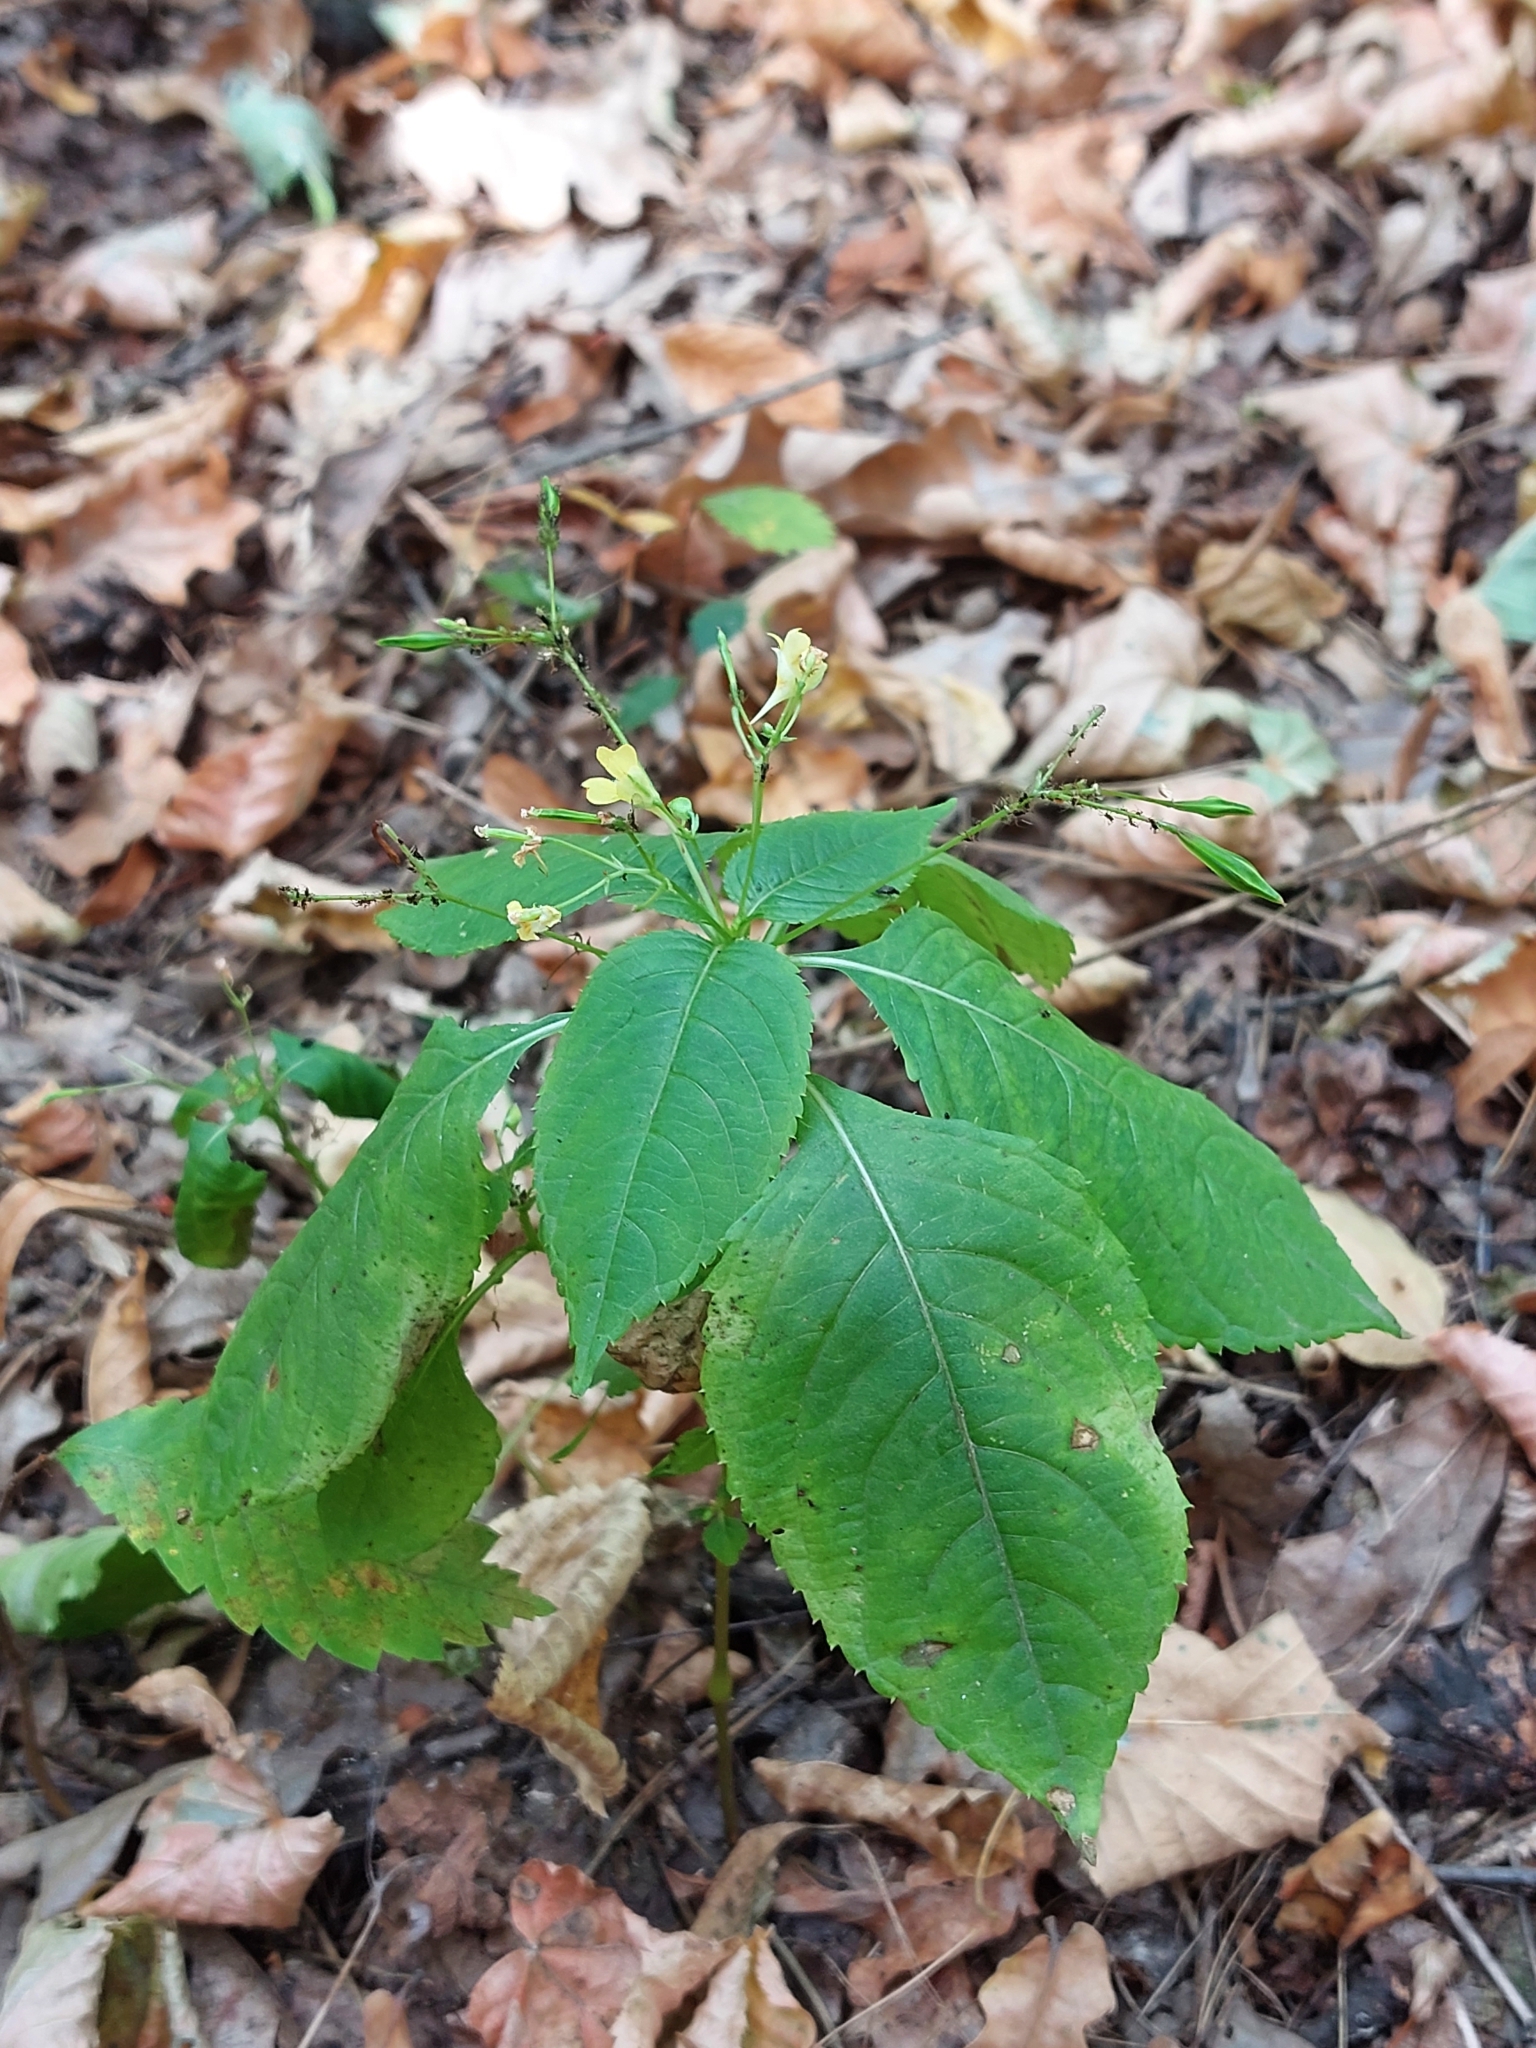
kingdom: Plantae
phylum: Tracheophyta
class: Magnoliopsida
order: Ericales
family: Balsaminaceae
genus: Impatiens
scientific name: Impatiens parviflora
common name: Small balsam
